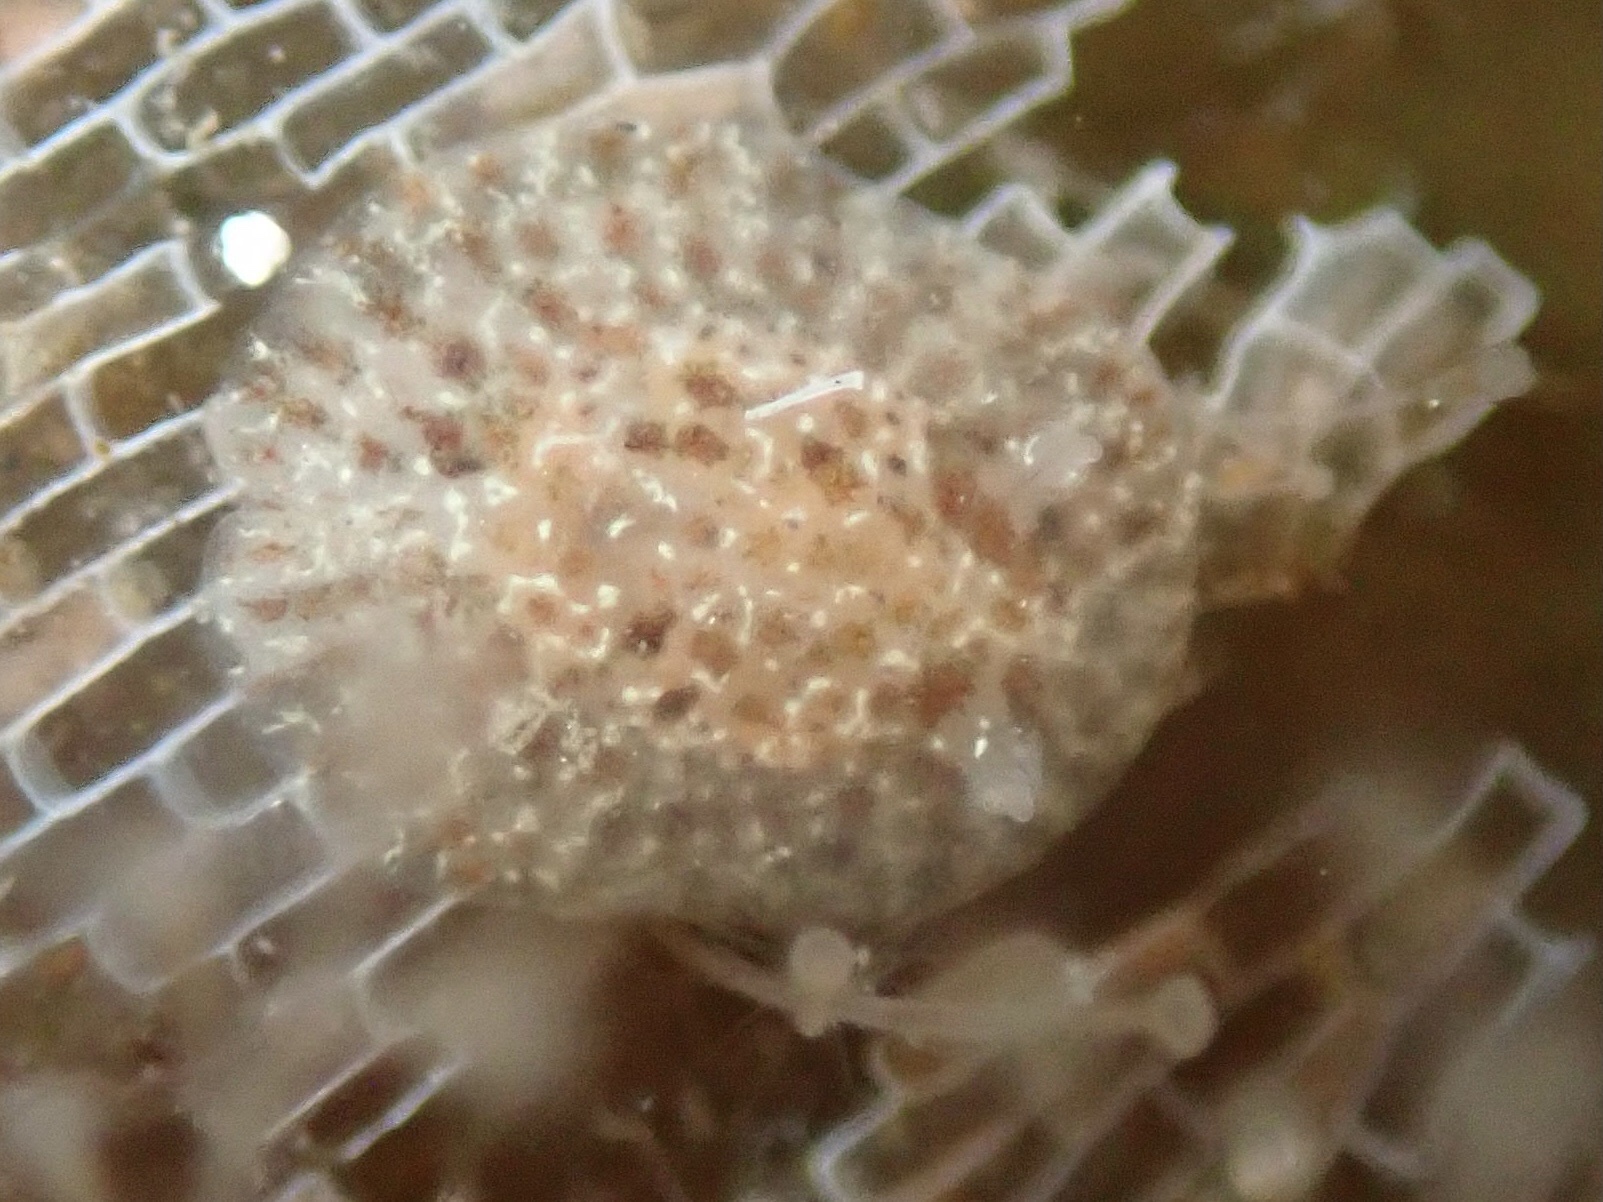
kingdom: Animalia
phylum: Mollusca
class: Gastropoda
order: Nudibranchia
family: Corambidae
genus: Corambe
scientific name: Corambe pacifica
